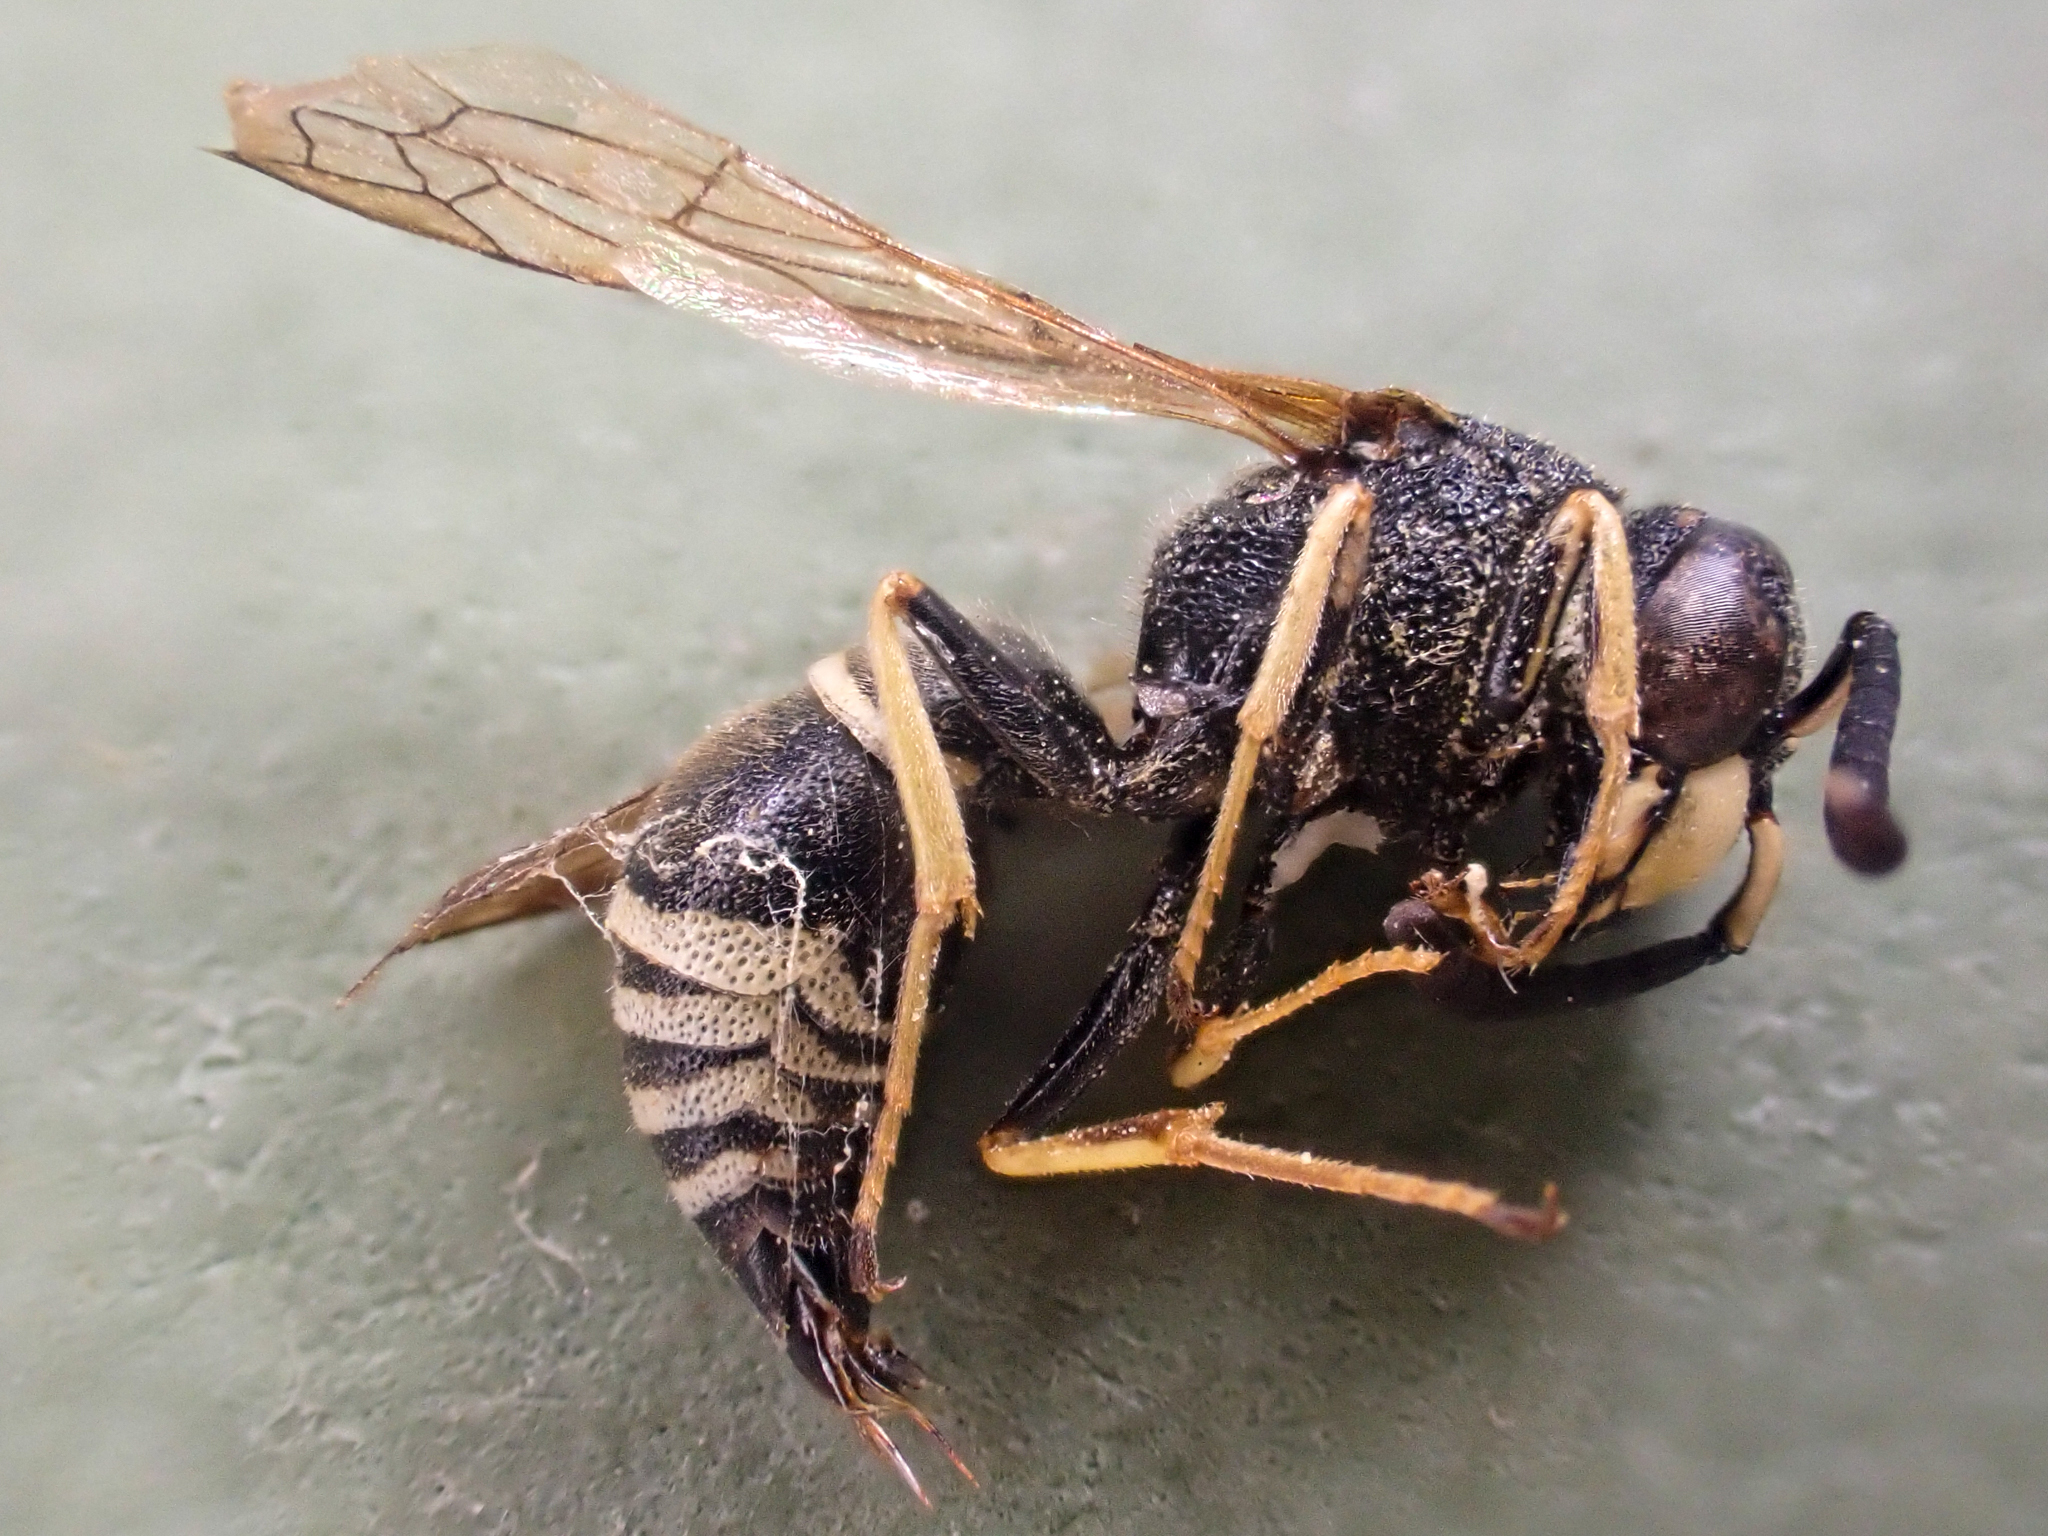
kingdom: Animalia
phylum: Arthropoda
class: Insecta
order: Hymenoptera
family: Eumenidae
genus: Euodynerus
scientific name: Euodynerus
